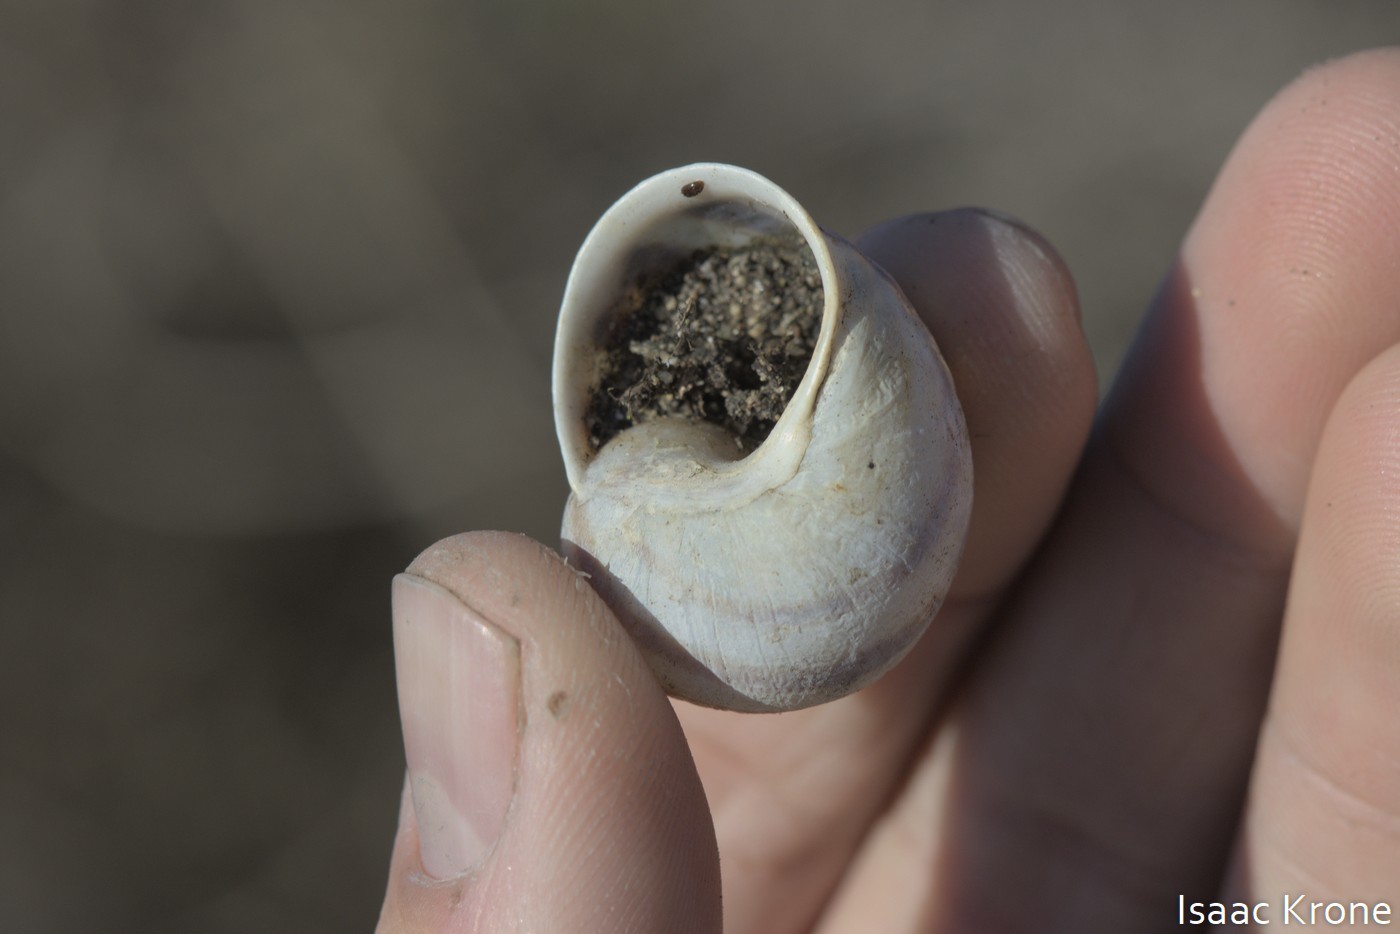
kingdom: Animalia
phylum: Mollusca
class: Gastropoda
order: Stylommatophora
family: Helicidae
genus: Cornu
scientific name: Cornu aspersum
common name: Brown garden snail
